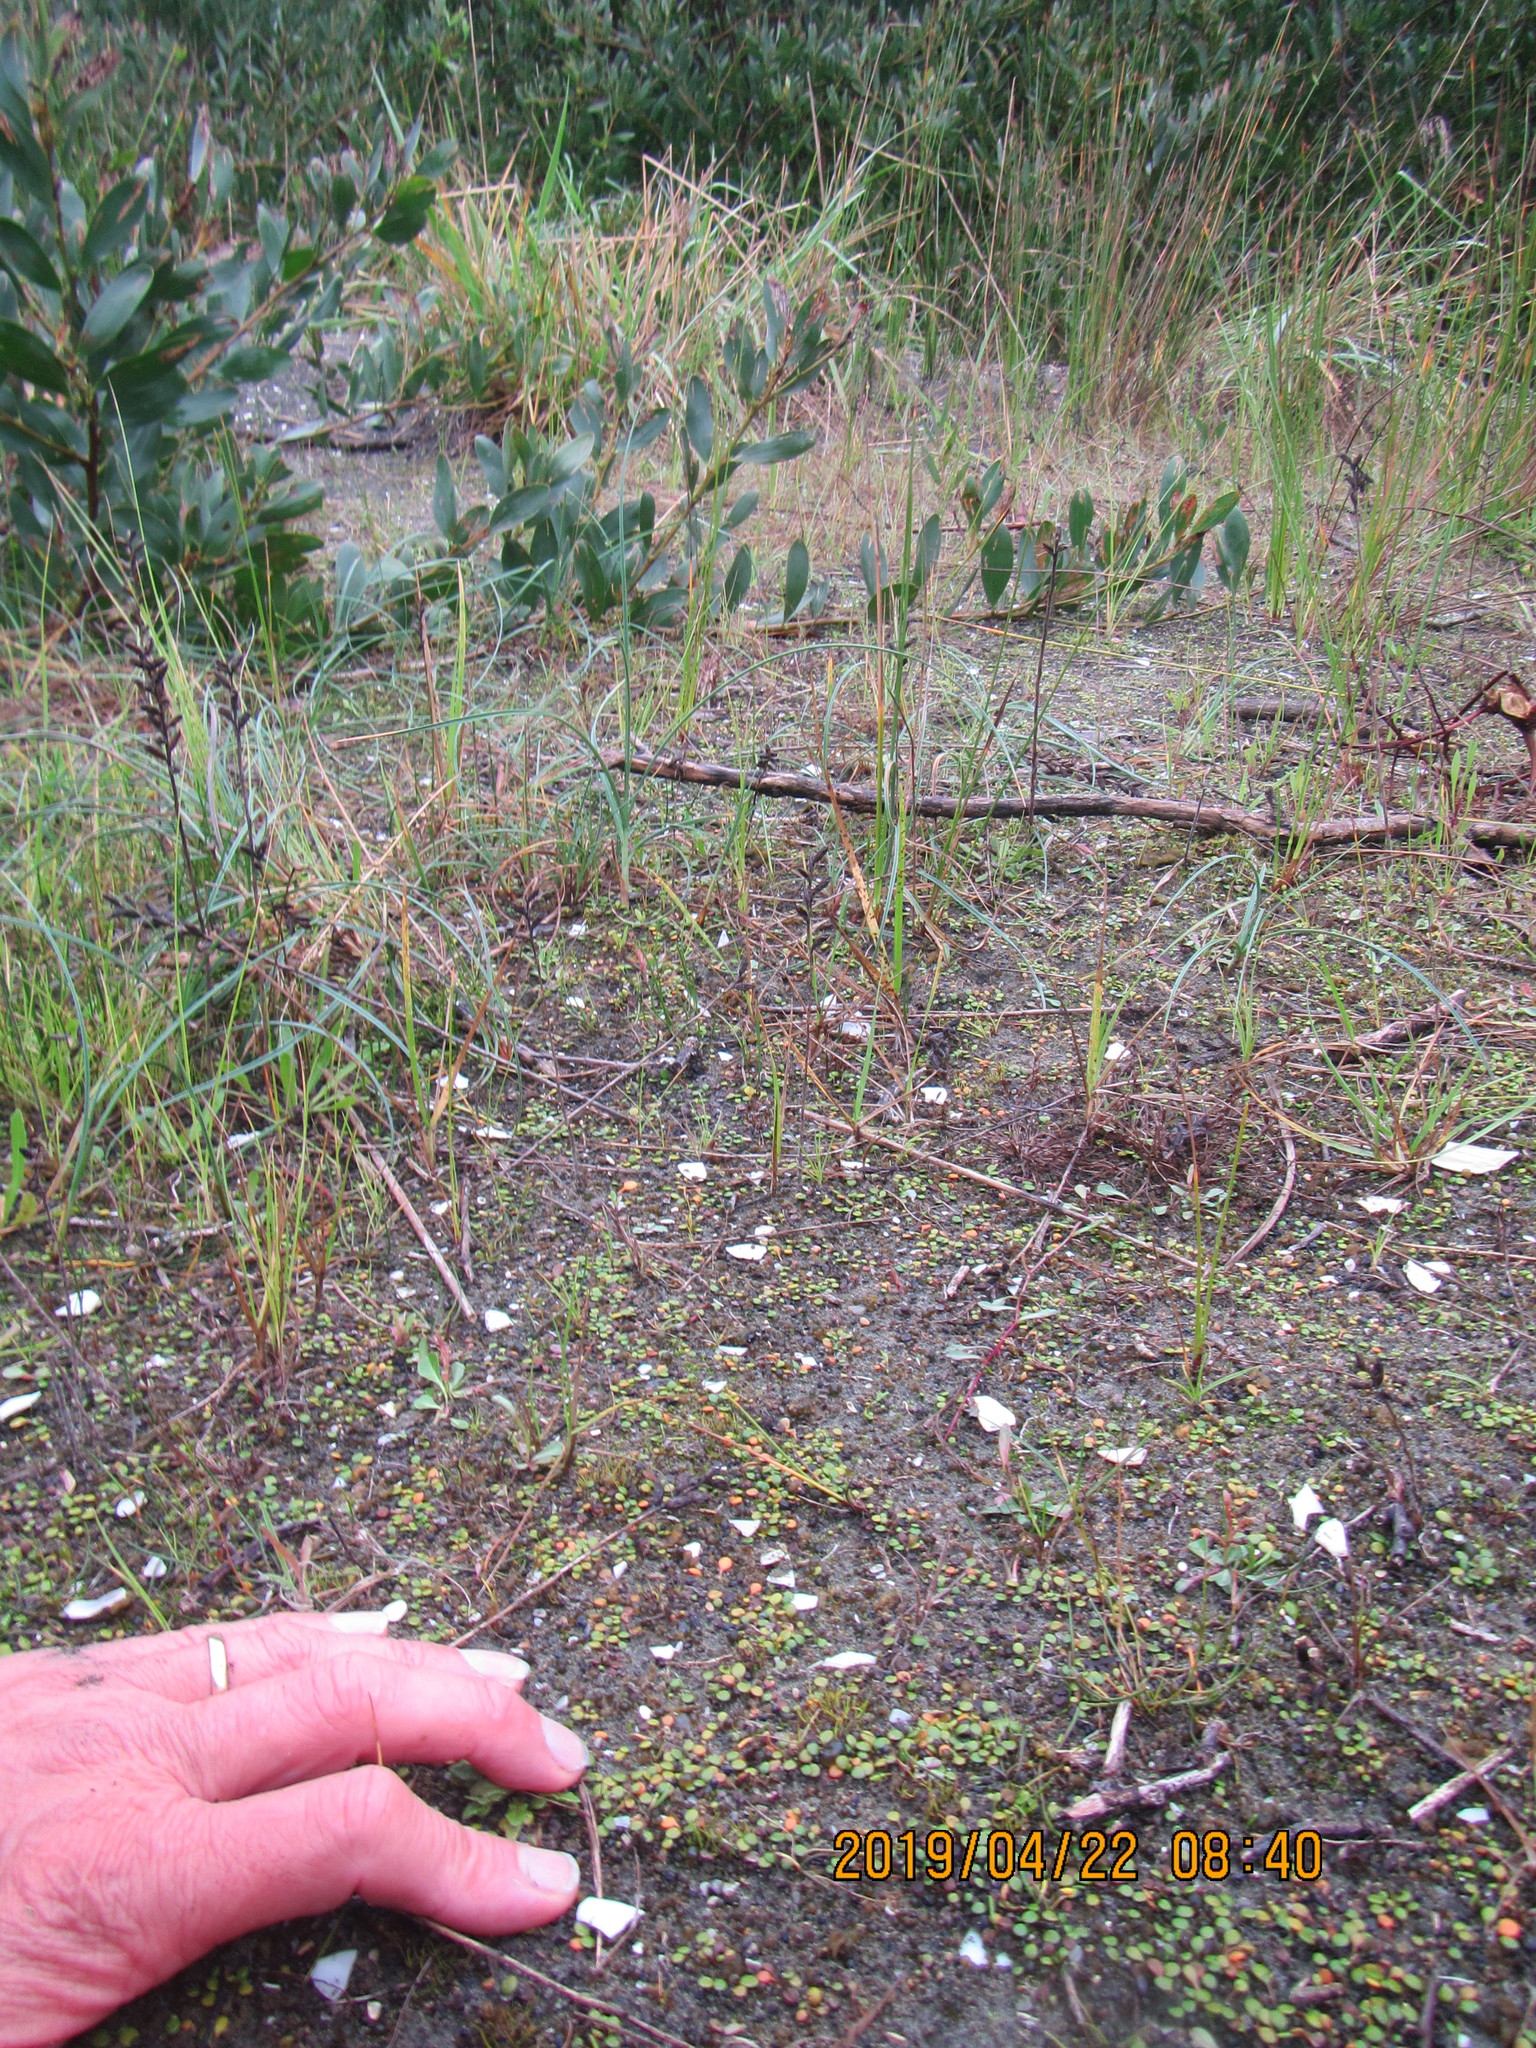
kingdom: Plantae
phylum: Tracheophyta
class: Magnoliopsida
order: Asterales
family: Goodeniaceae
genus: Goodenia
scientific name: Goodenia heenanii
